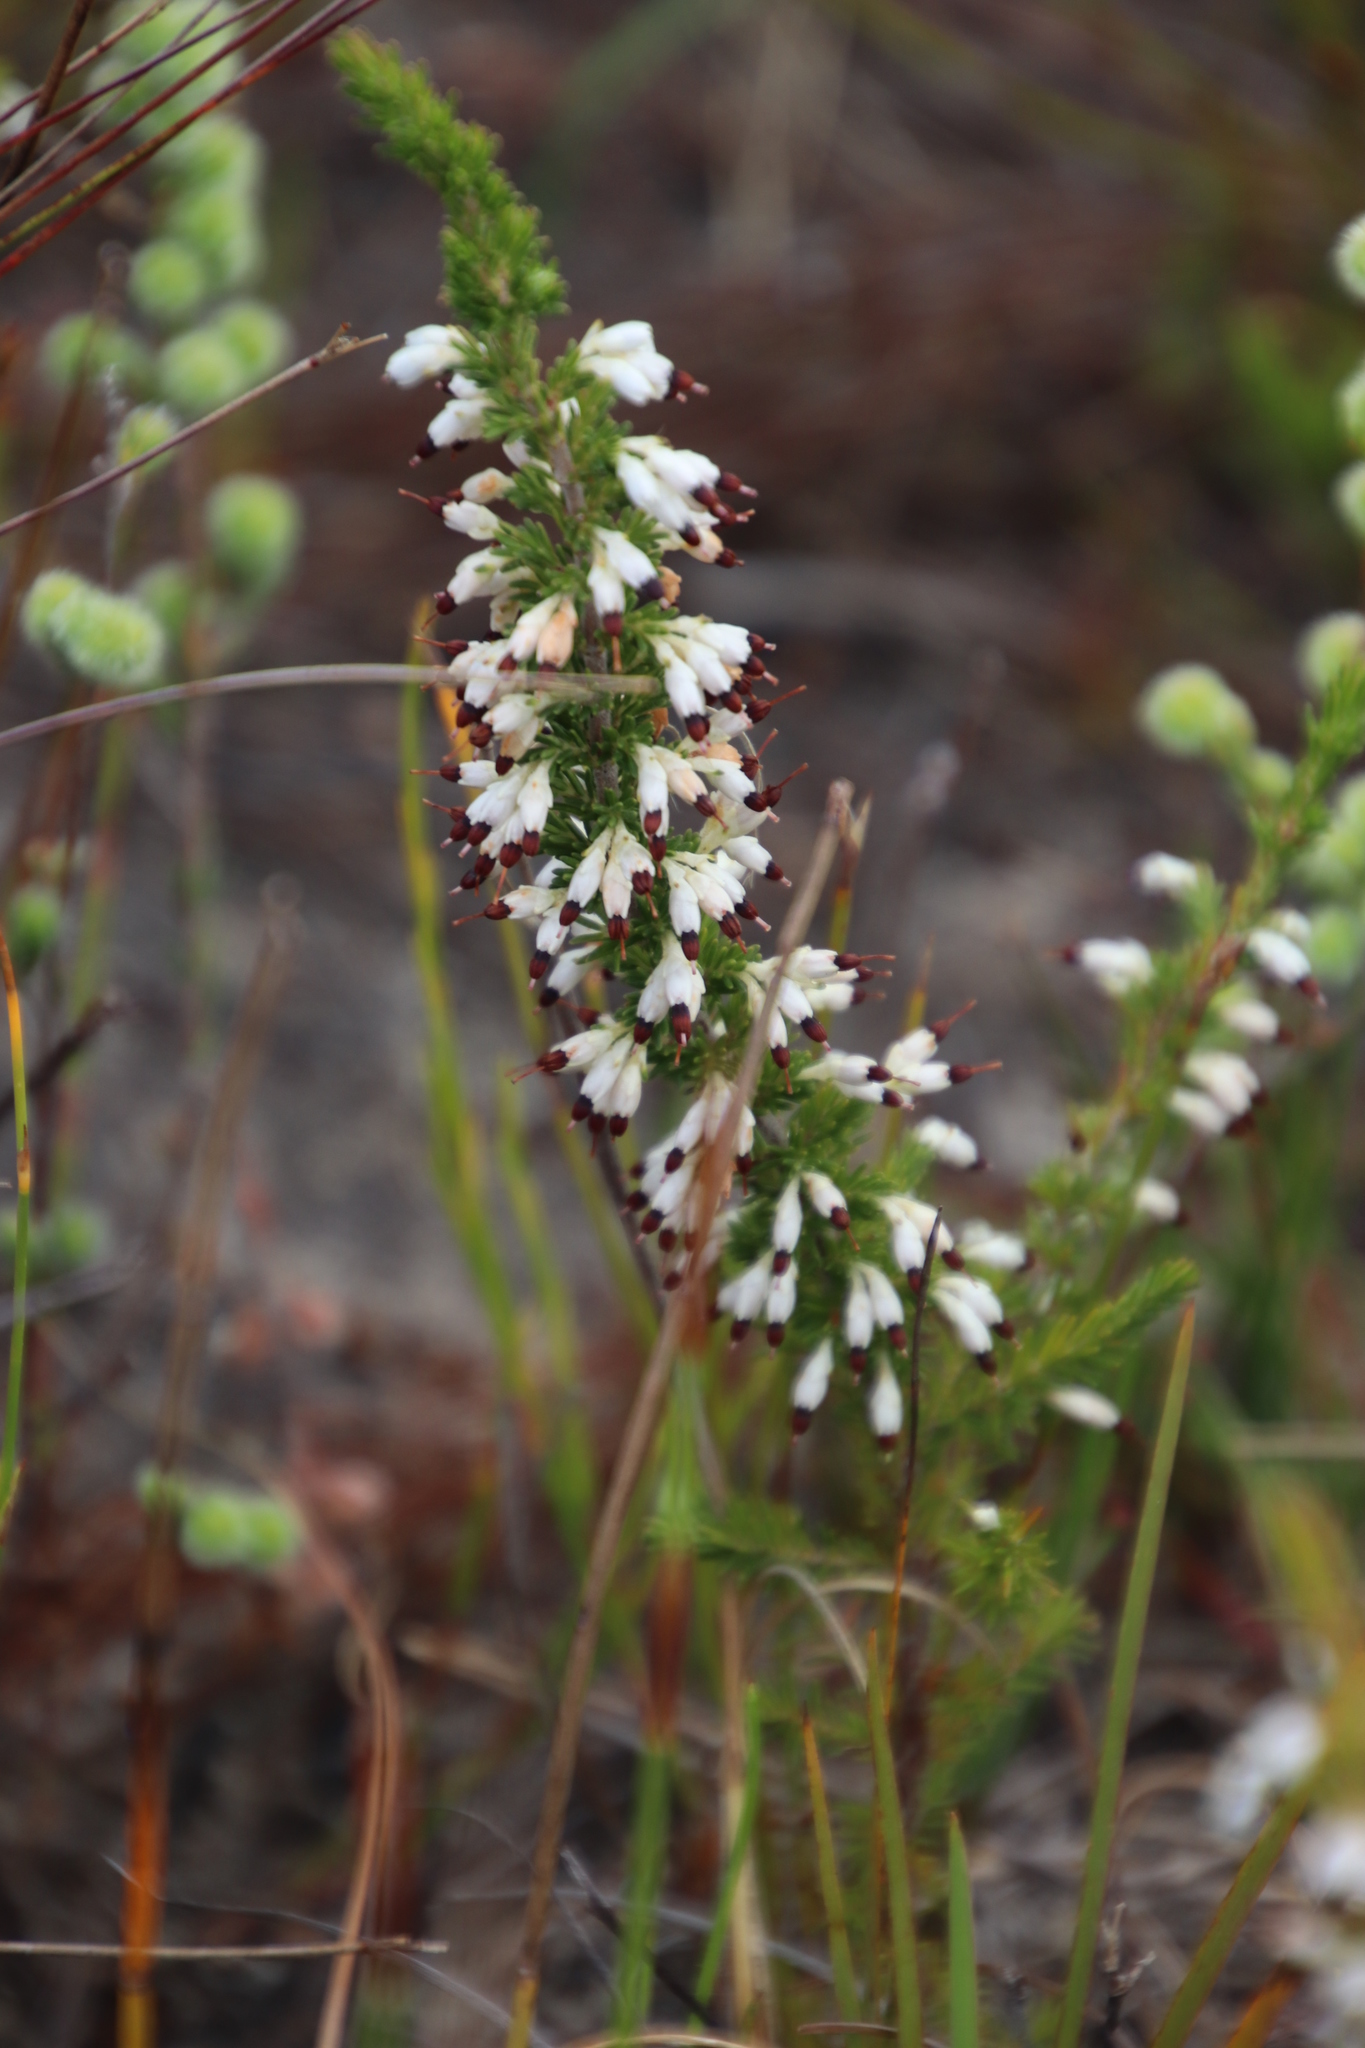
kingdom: Plantae
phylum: Tracheophyta
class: Magnoliopsida
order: Ericales
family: Ericaceae
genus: Erica
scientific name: Erica imbricata
